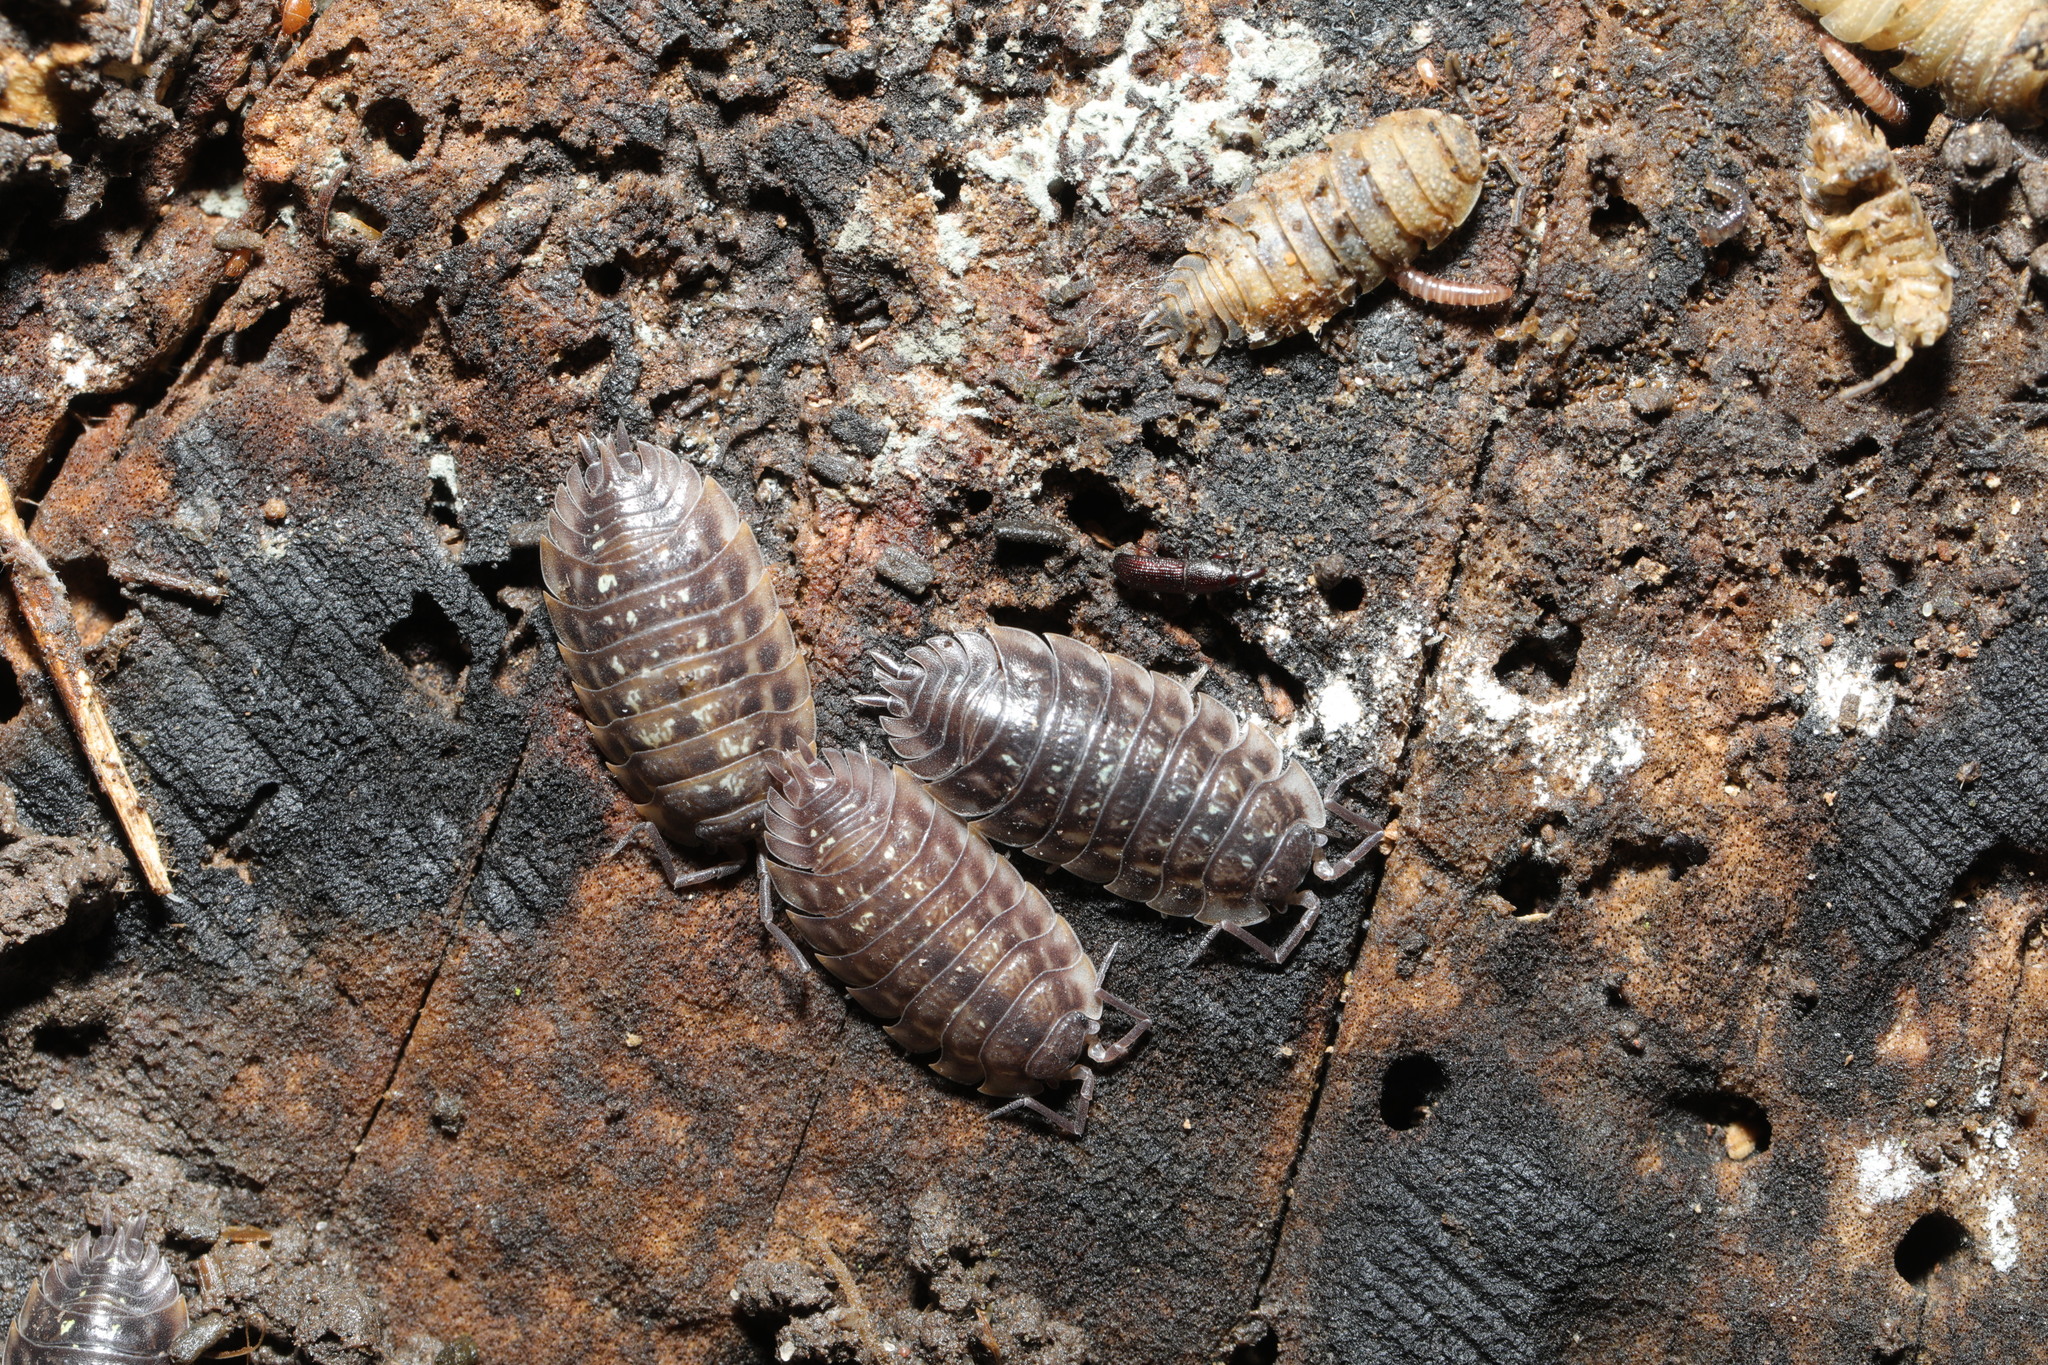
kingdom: Animalia
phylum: Arthropoda
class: Malacostraca
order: Isopoda
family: Oniscidae
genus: Oniscus
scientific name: Oniscus asellus
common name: Common shiny woodlouse
